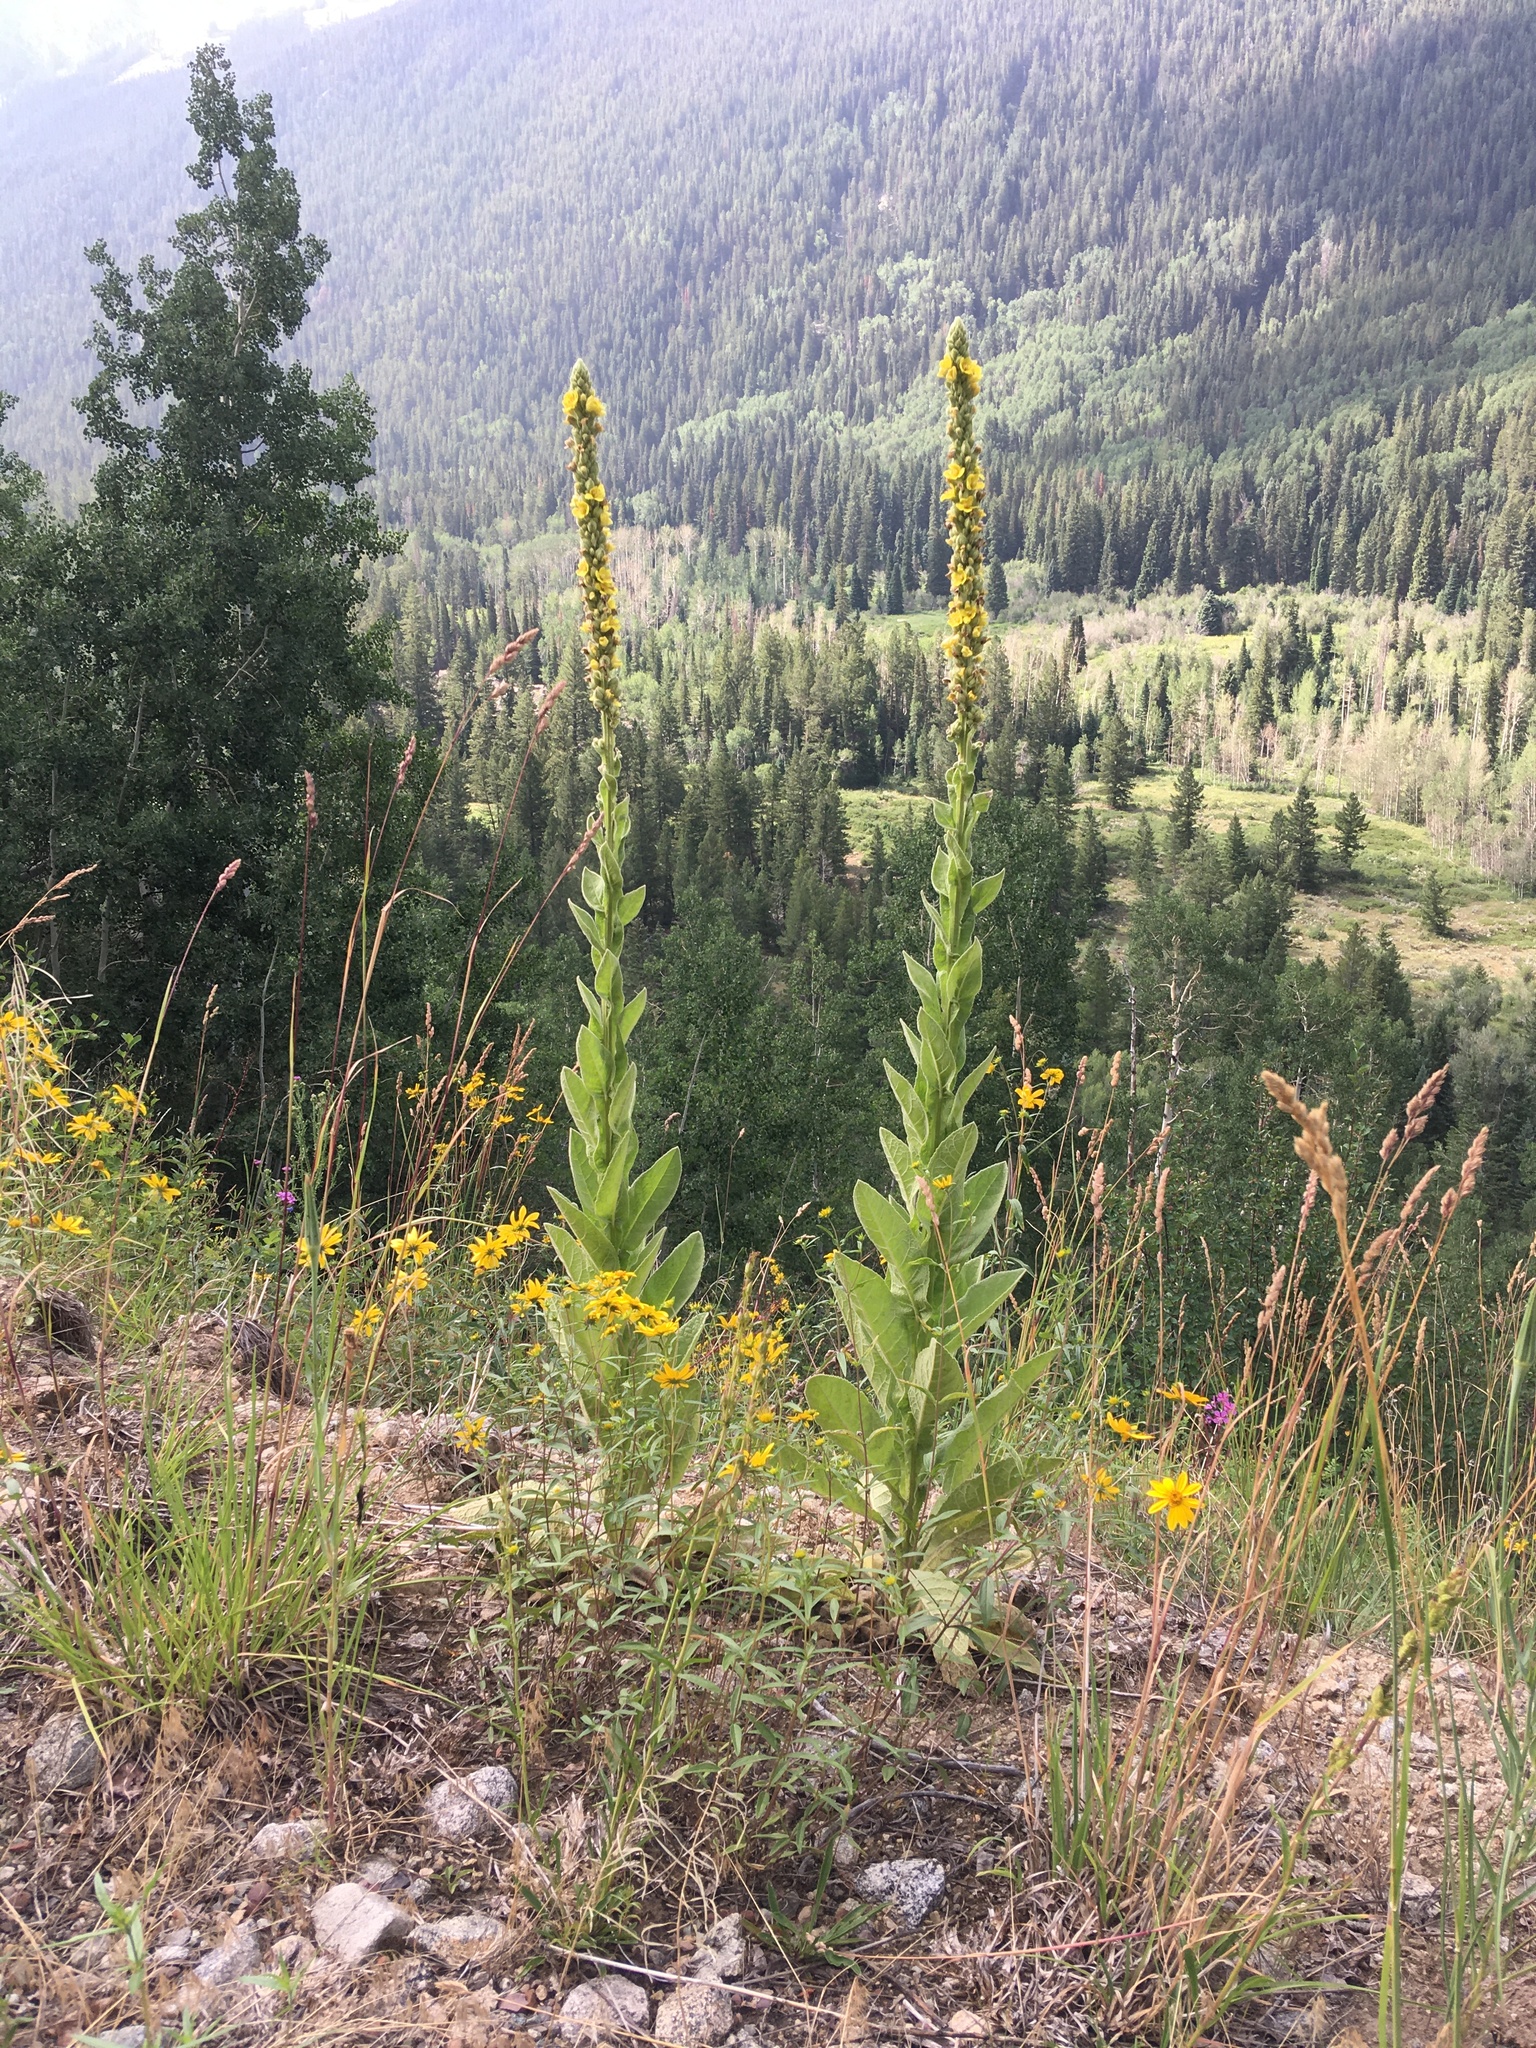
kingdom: Plantae
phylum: Tracheophyta
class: Magnoliopsida
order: Lamiales
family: Scrophulariaceae
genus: Verbascum
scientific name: Verbascum thapsus
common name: Common mullein
